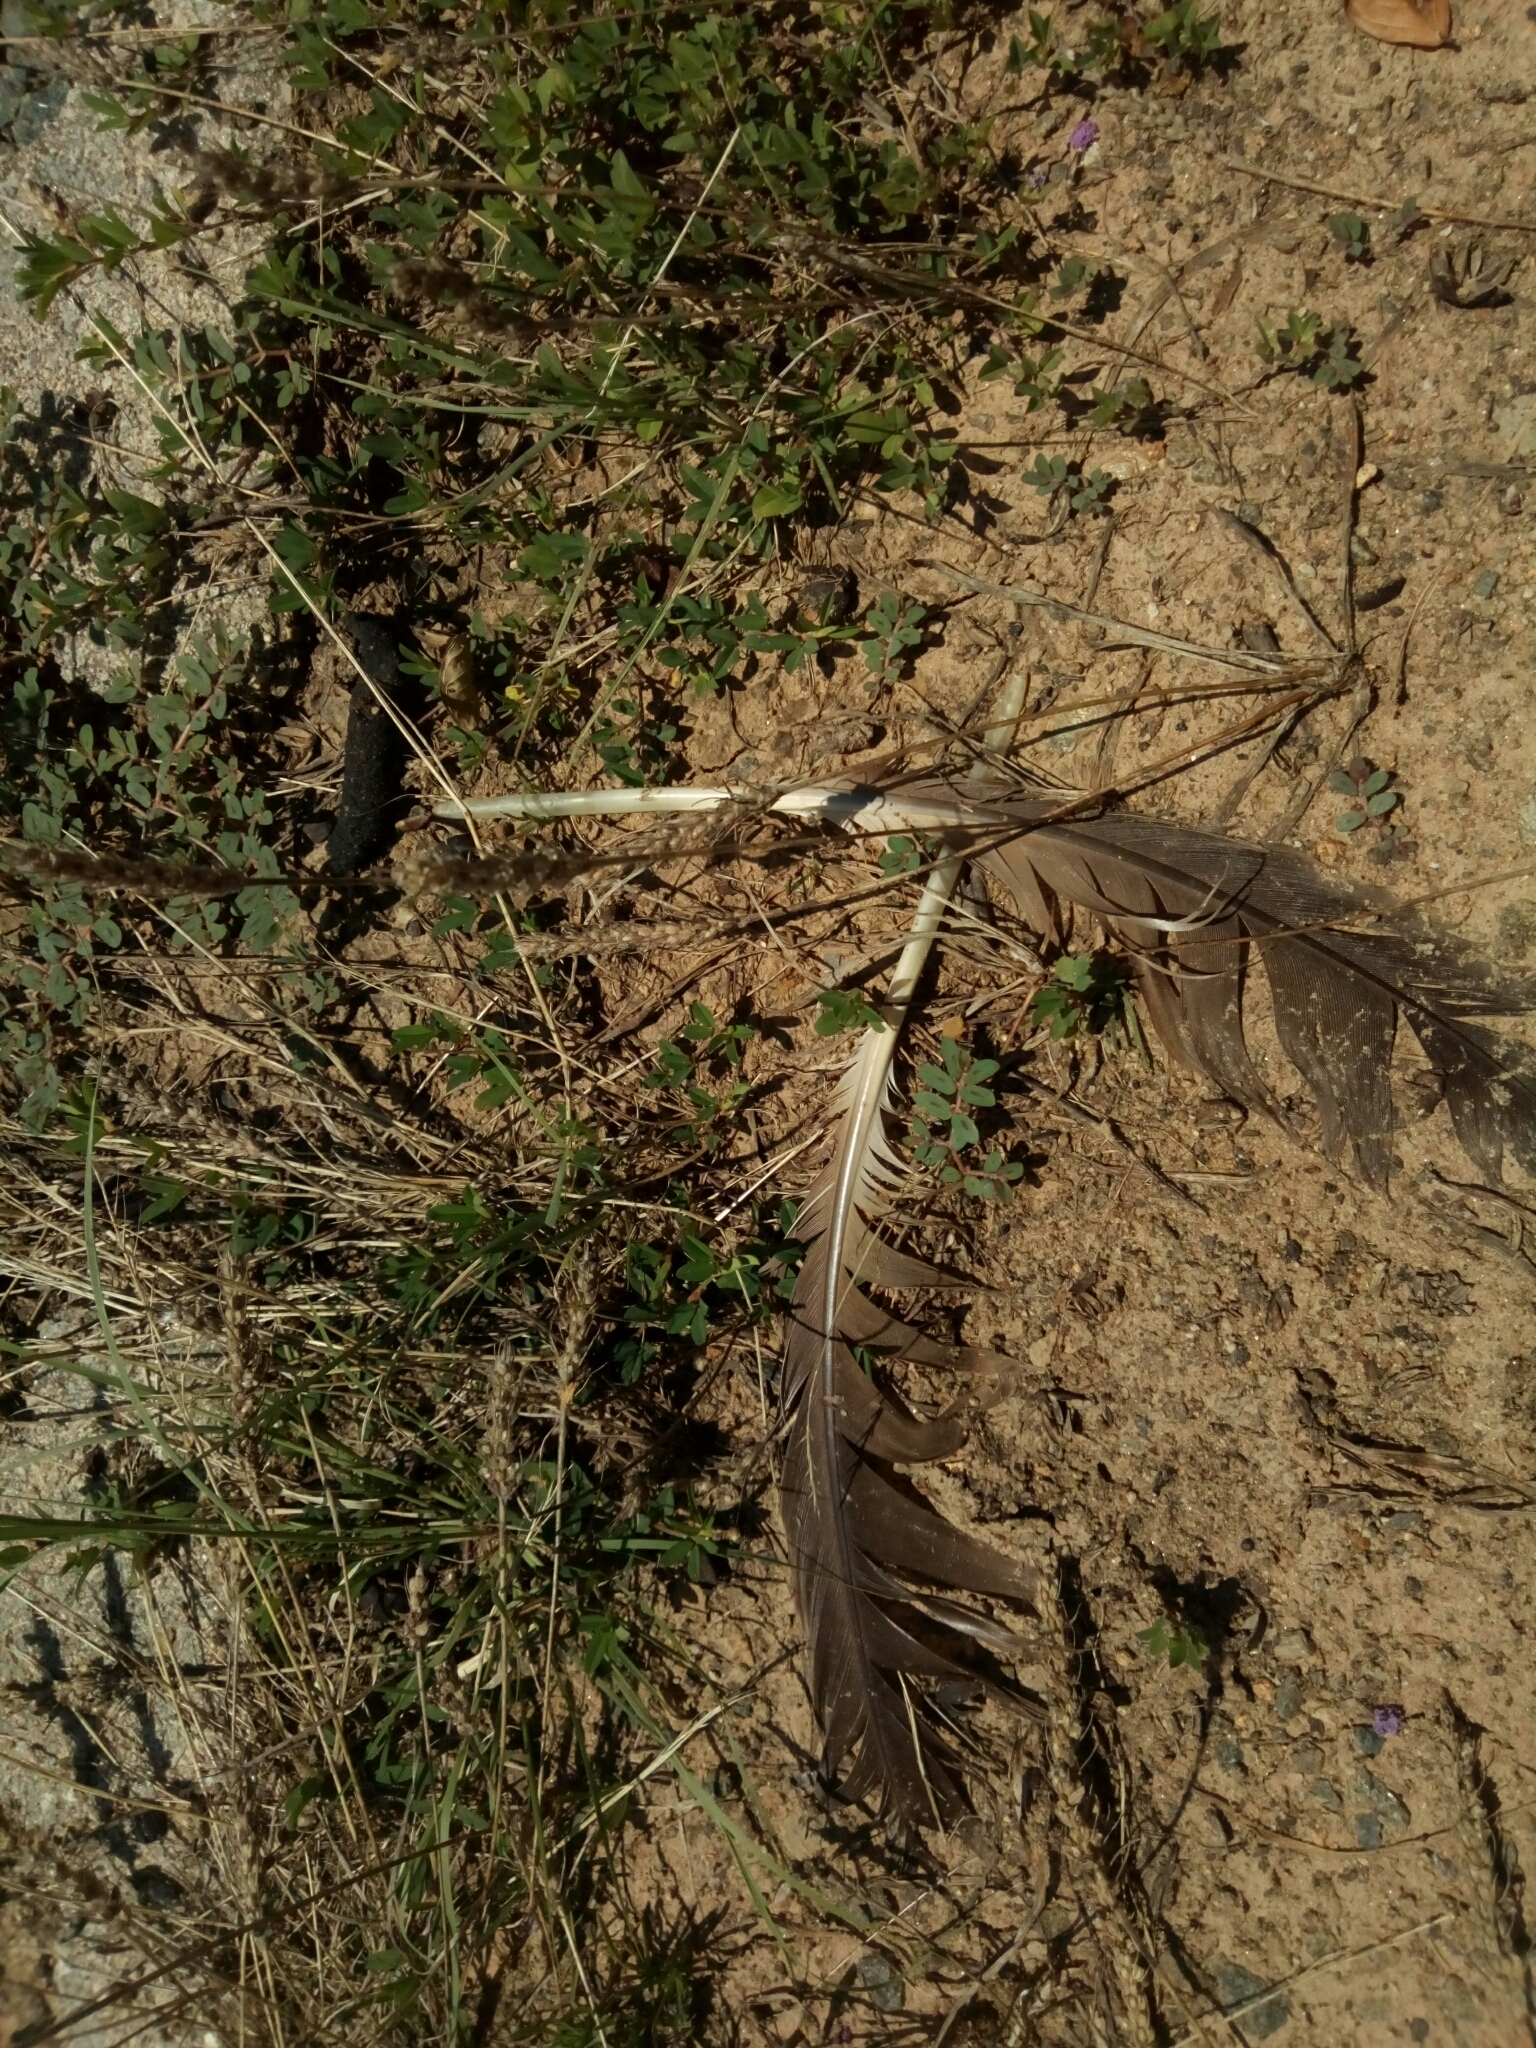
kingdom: Animalia
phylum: Chordata
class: Aves
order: Anseriformes
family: Anatidae
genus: Branta
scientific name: Branta canadensis
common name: Canada goose
